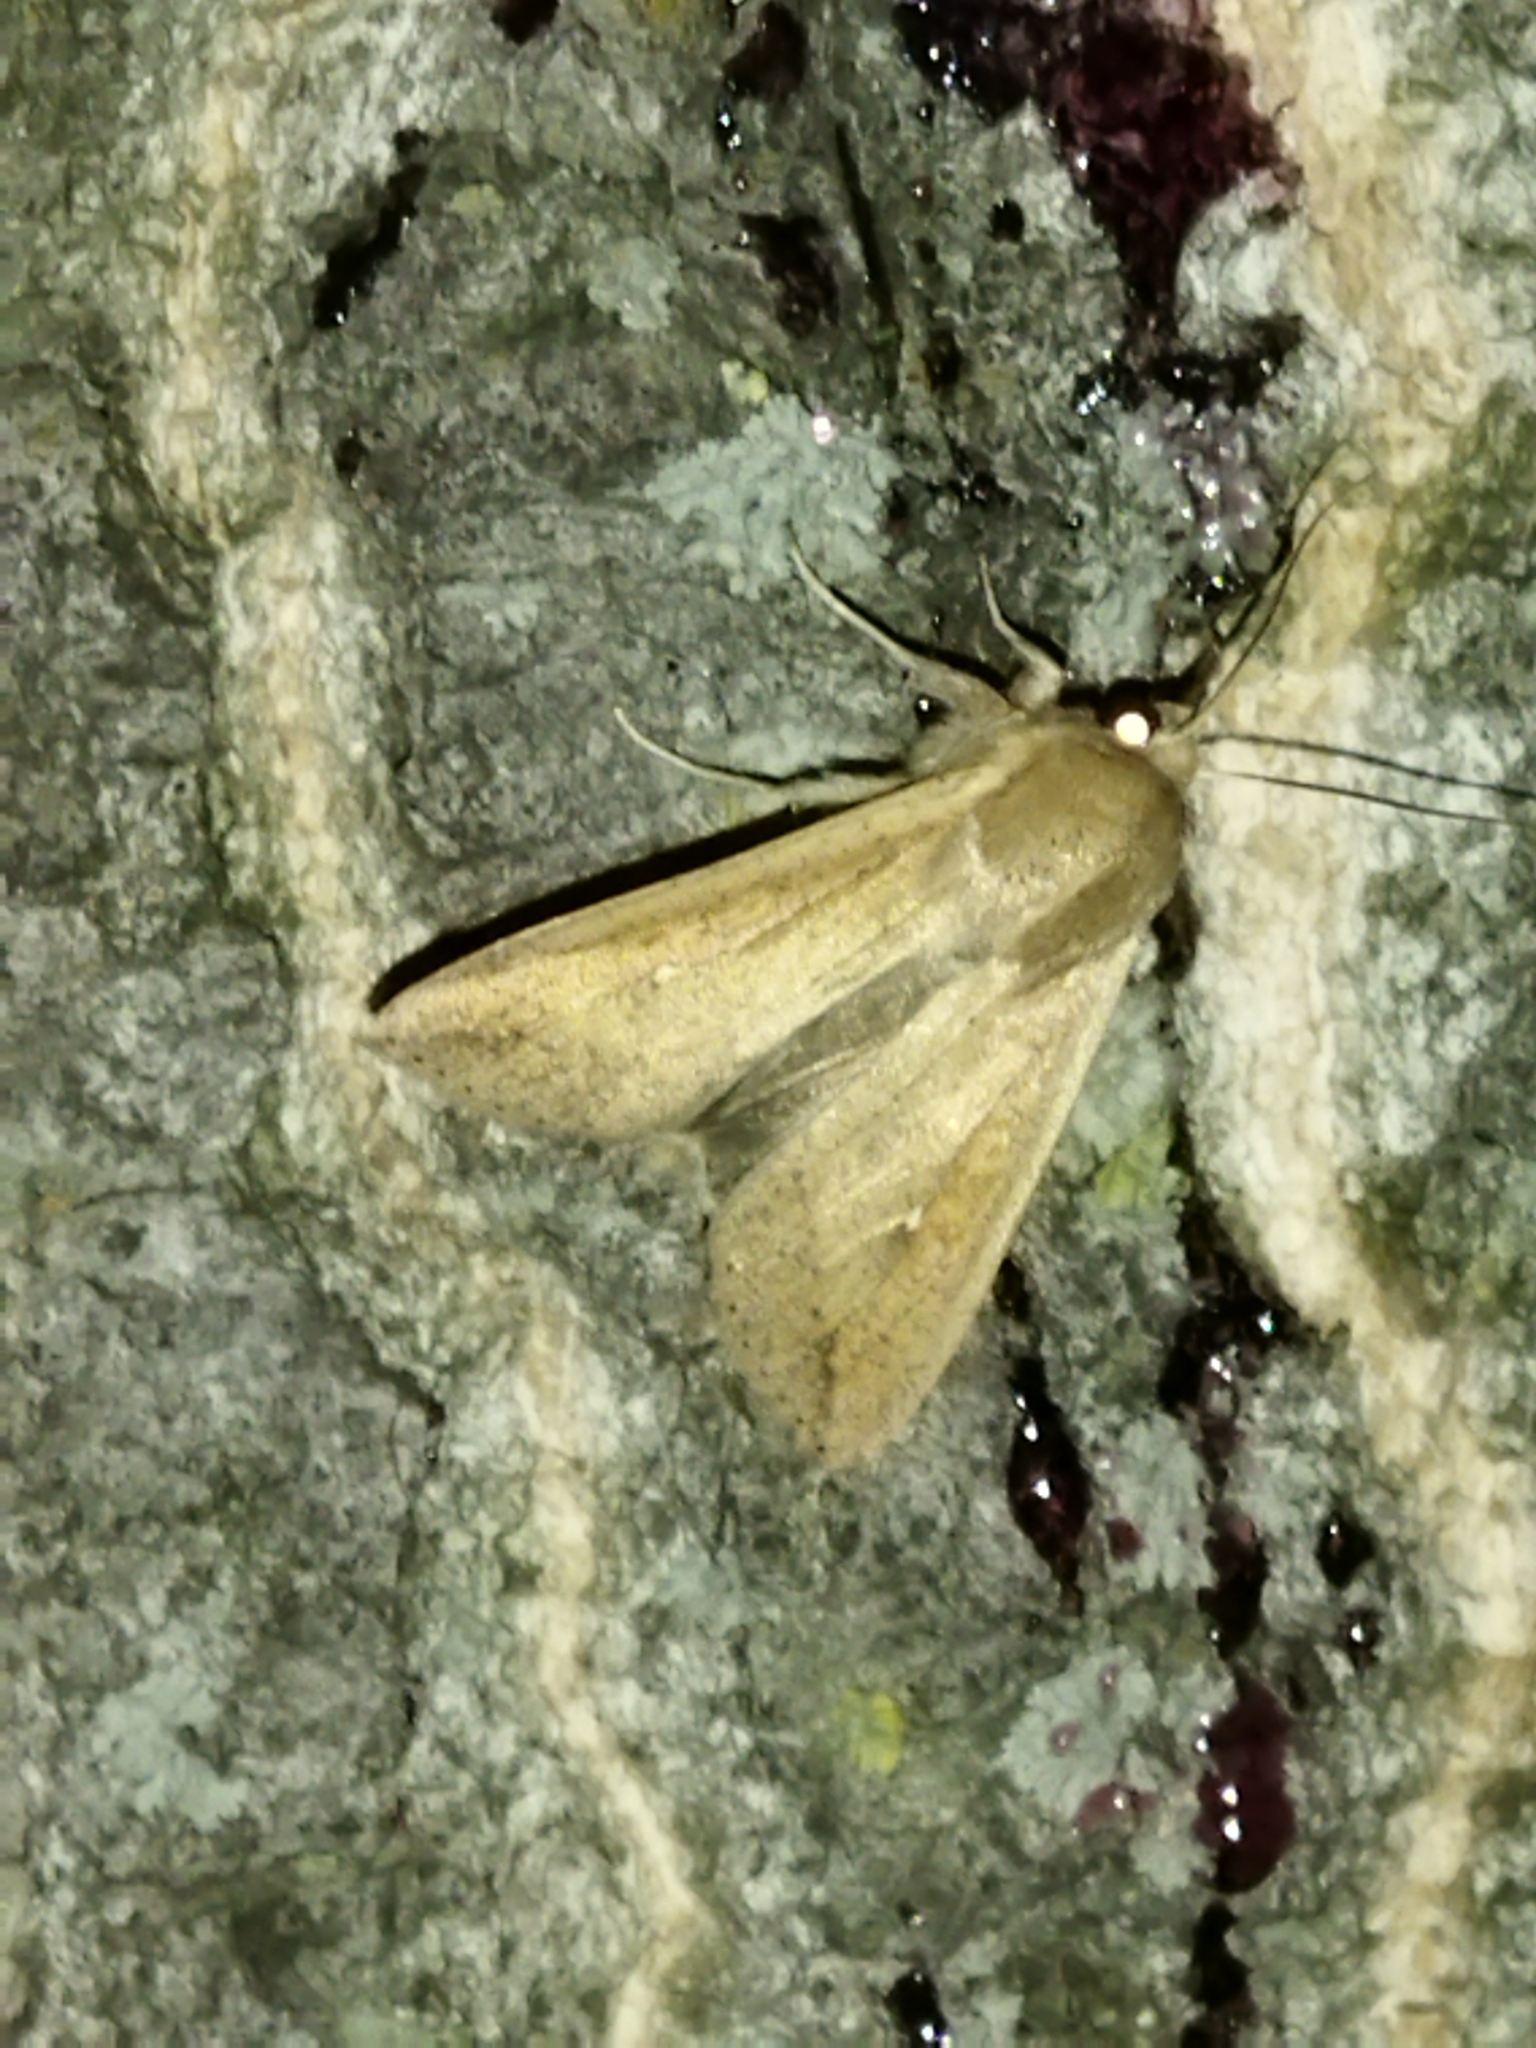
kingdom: Animalia
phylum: Arthropoda
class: Insecta
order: Lepidoptera
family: Noctuidae
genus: Mythimna
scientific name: Mythimna unipuncta
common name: White-speck
